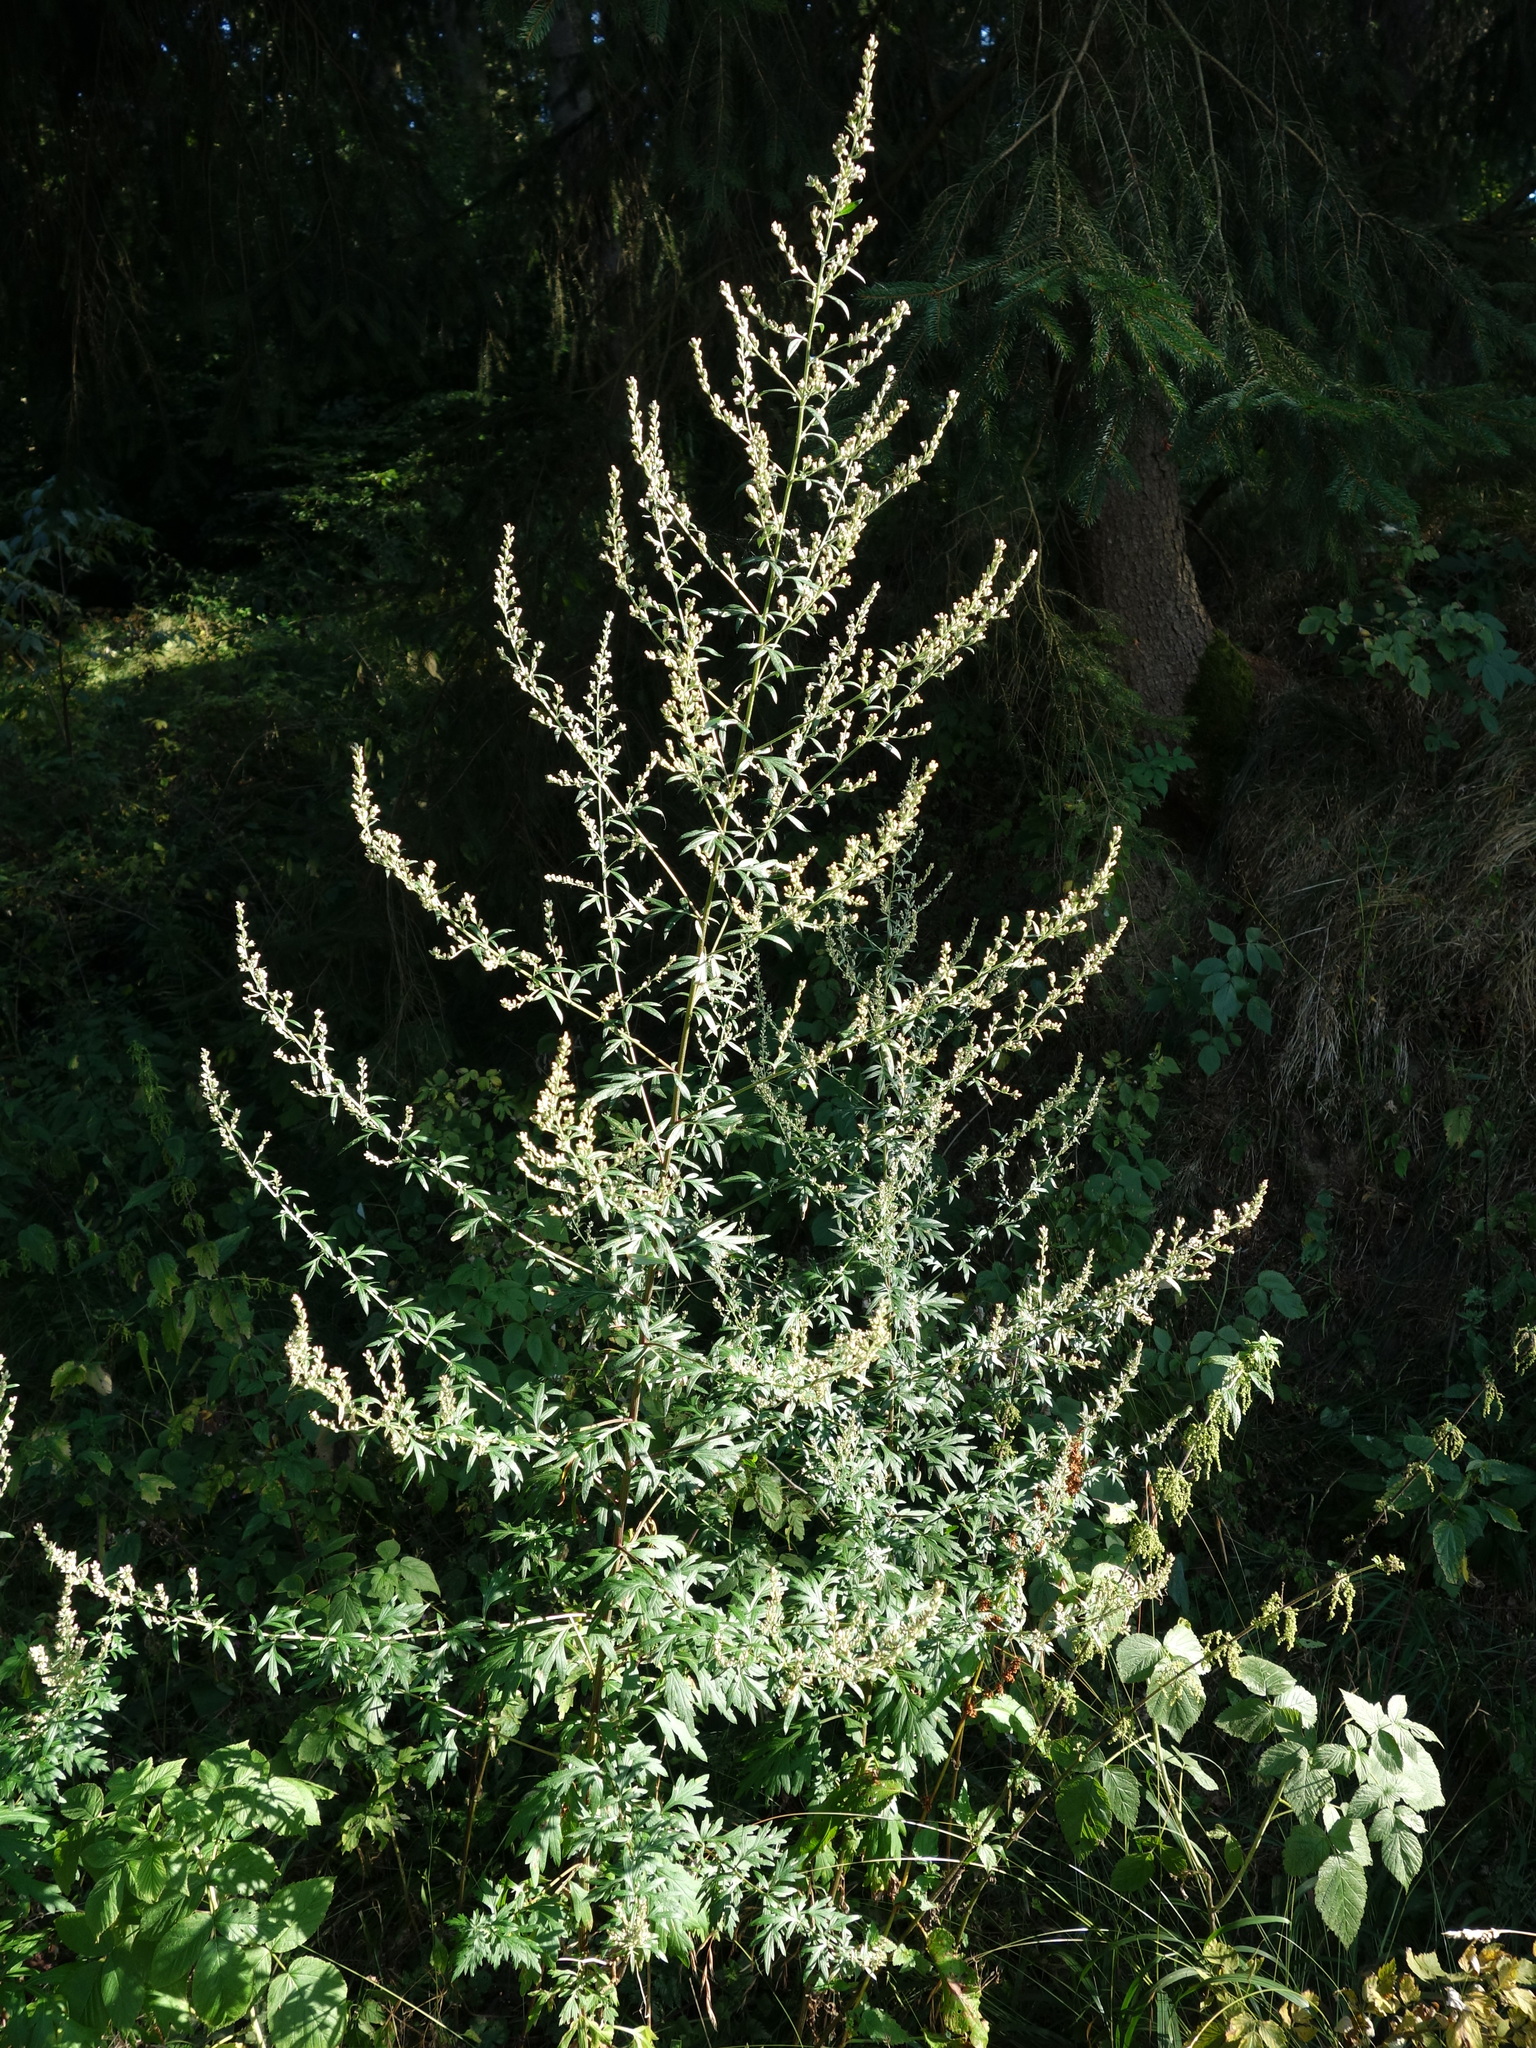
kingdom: Plantae
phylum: Tracheophyta
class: Magnoliopsida
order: Asterales
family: Asteraceae
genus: Artemisia
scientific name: Artemisia vulgaris
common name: Mugwort
